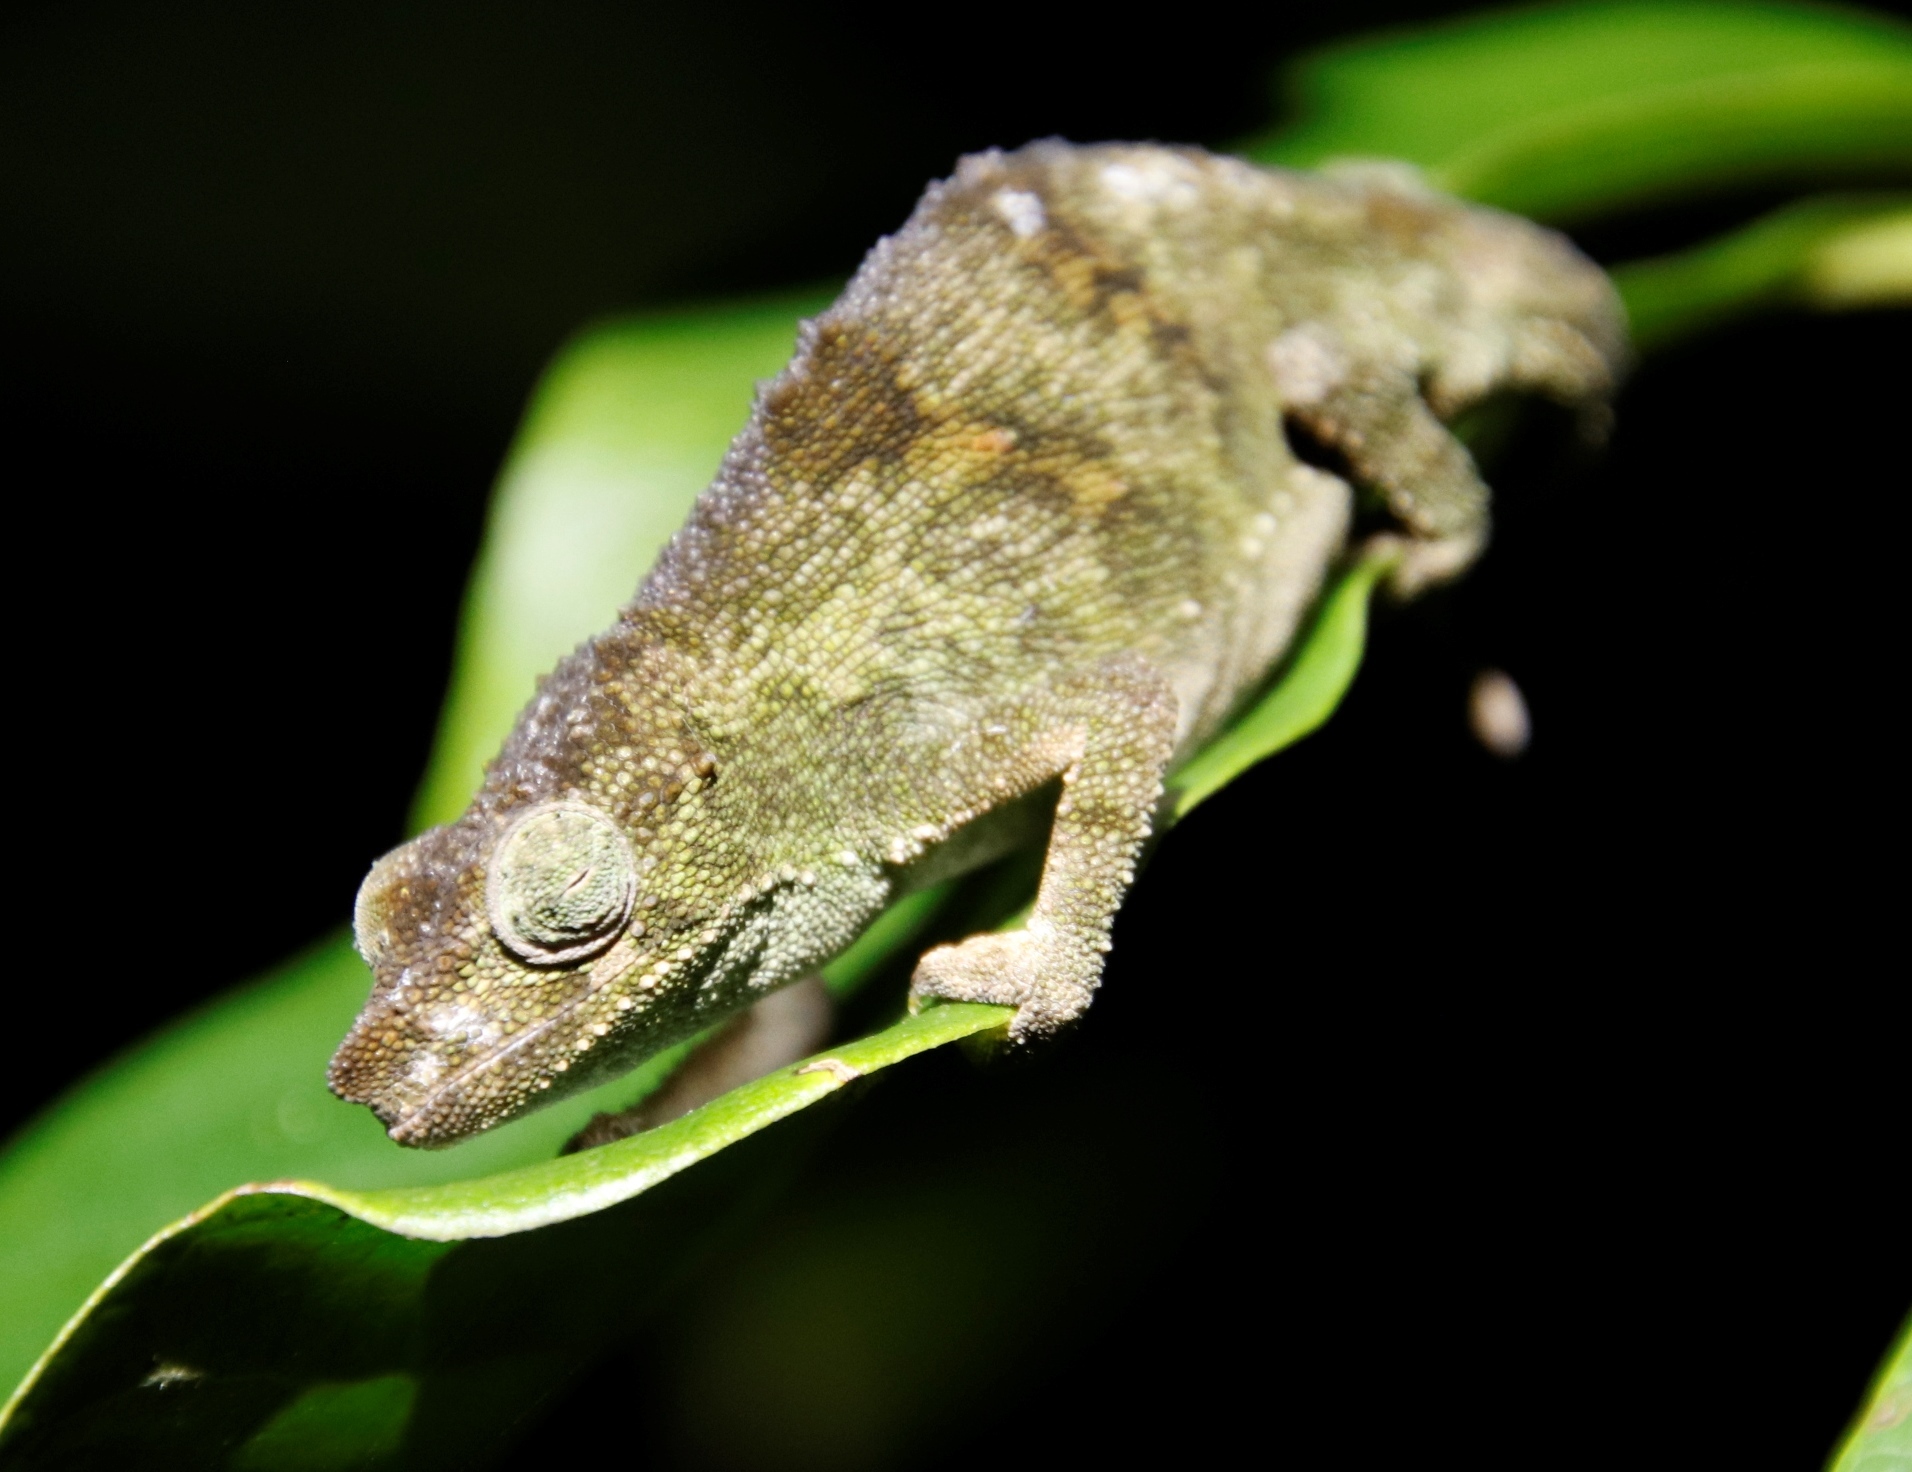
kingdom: Animalia
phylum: Chordata
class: Squamata
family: Chamaeleonidae
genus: Rhampholeon
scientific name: Rhampholeon marshalli
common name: Marshall's african leaf chameleon
